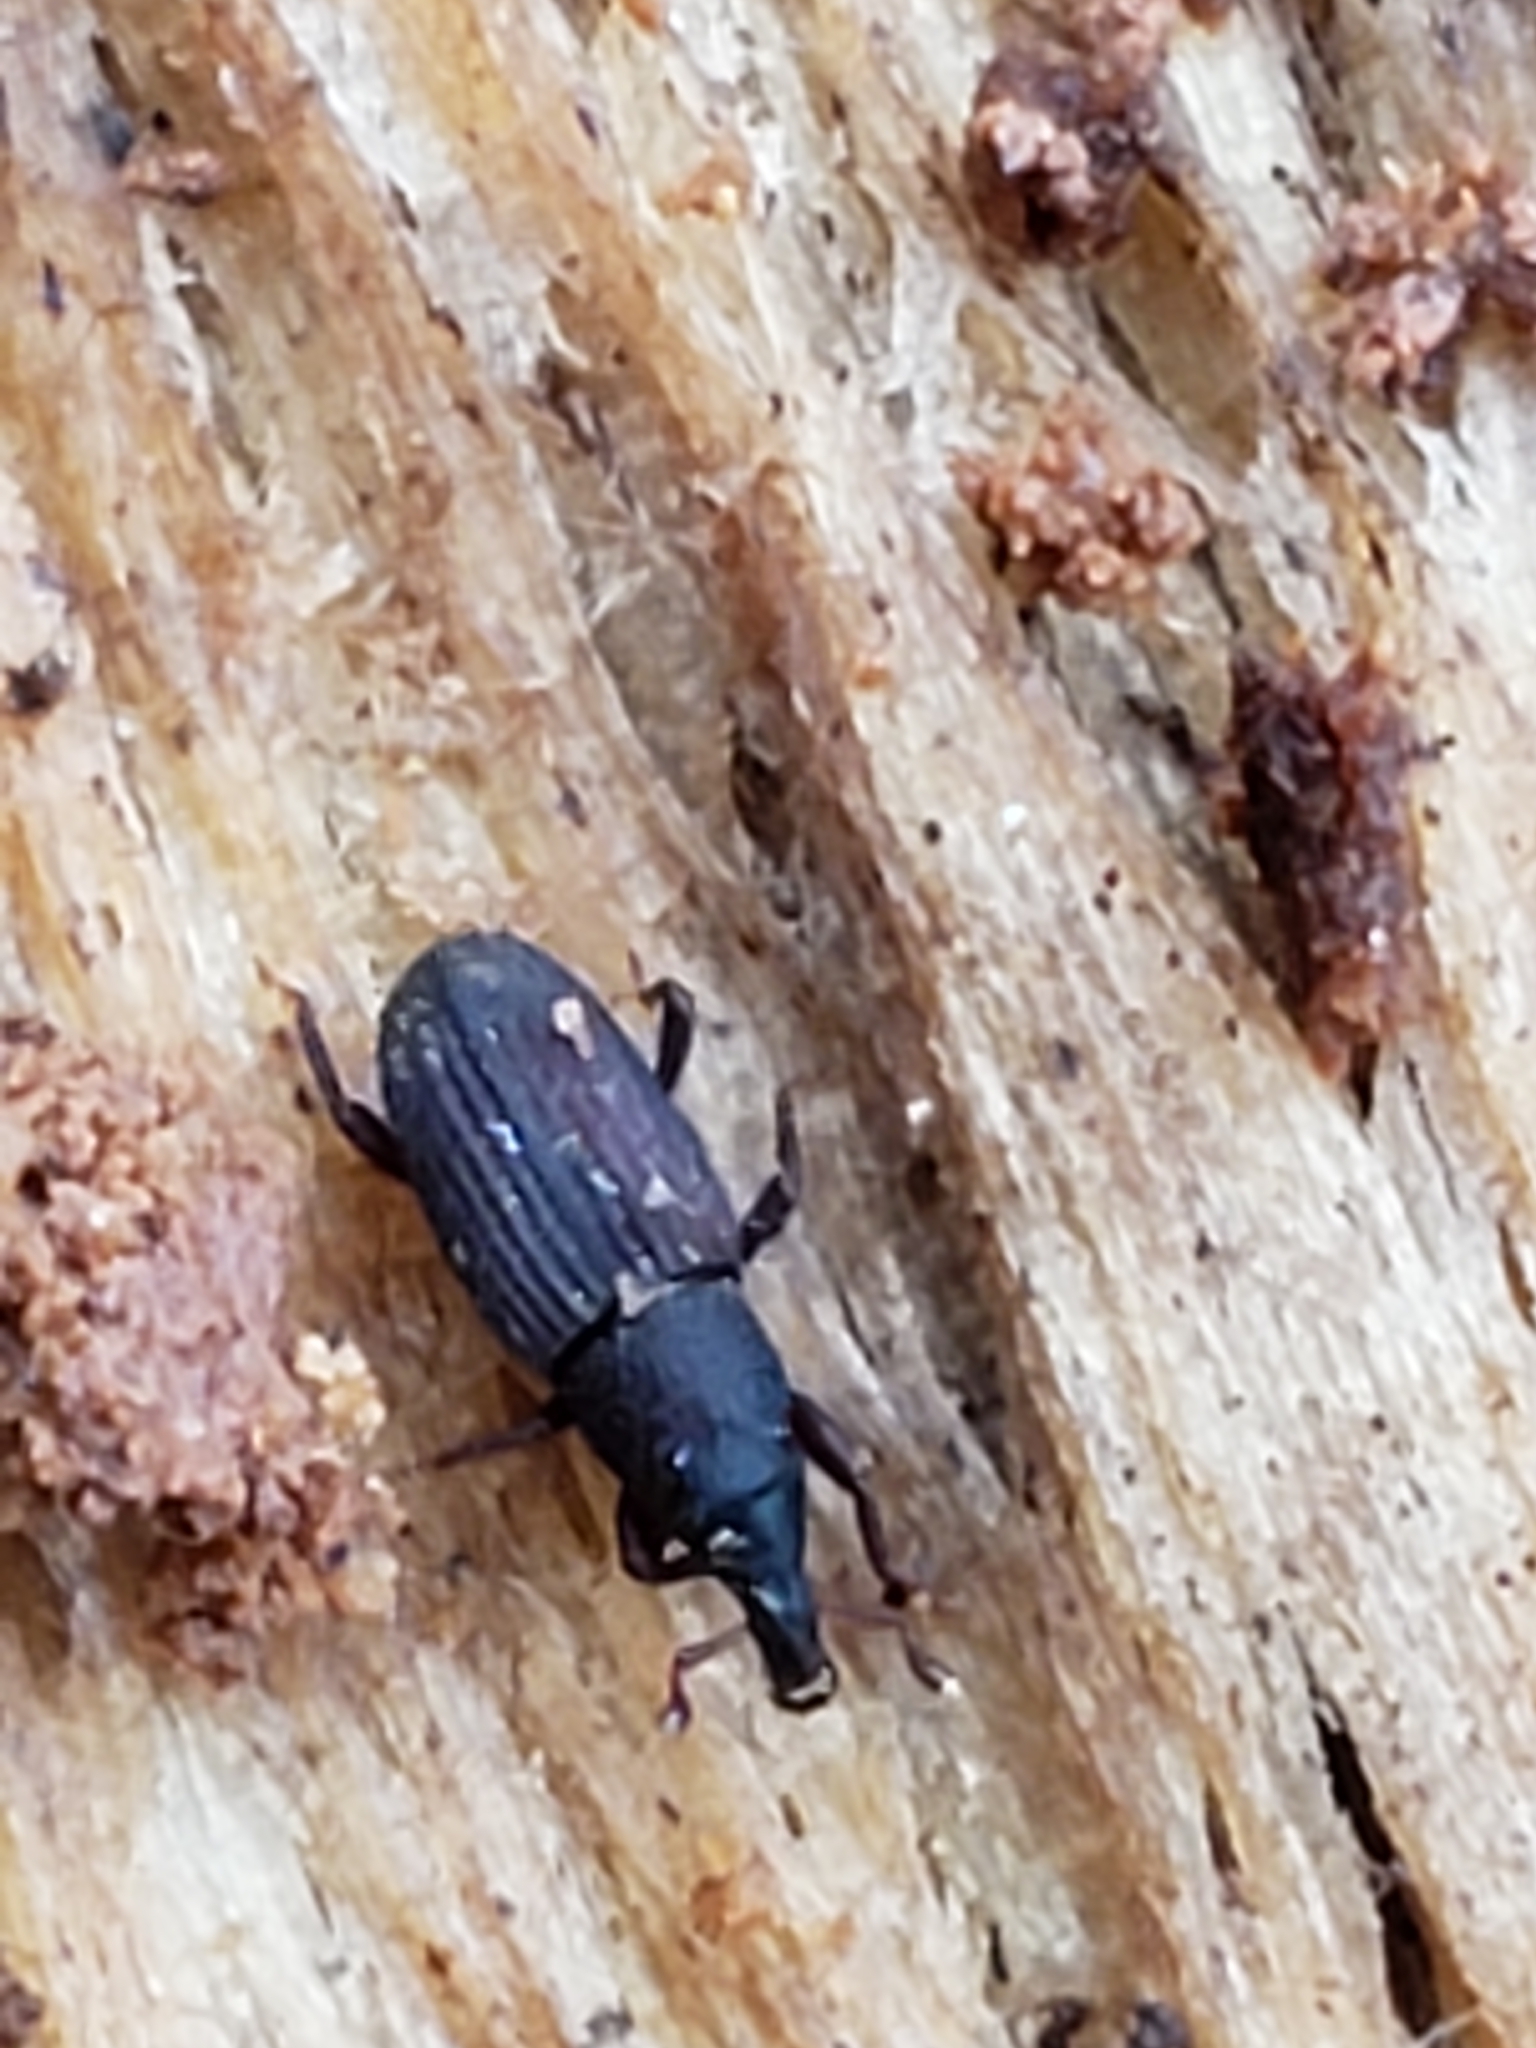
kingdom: Animalia
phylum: Arthropoda
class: Insecta
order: Coleoptera
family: Dryophthoridae
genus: Dryophthorus
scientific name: Dryophthorus americanus
